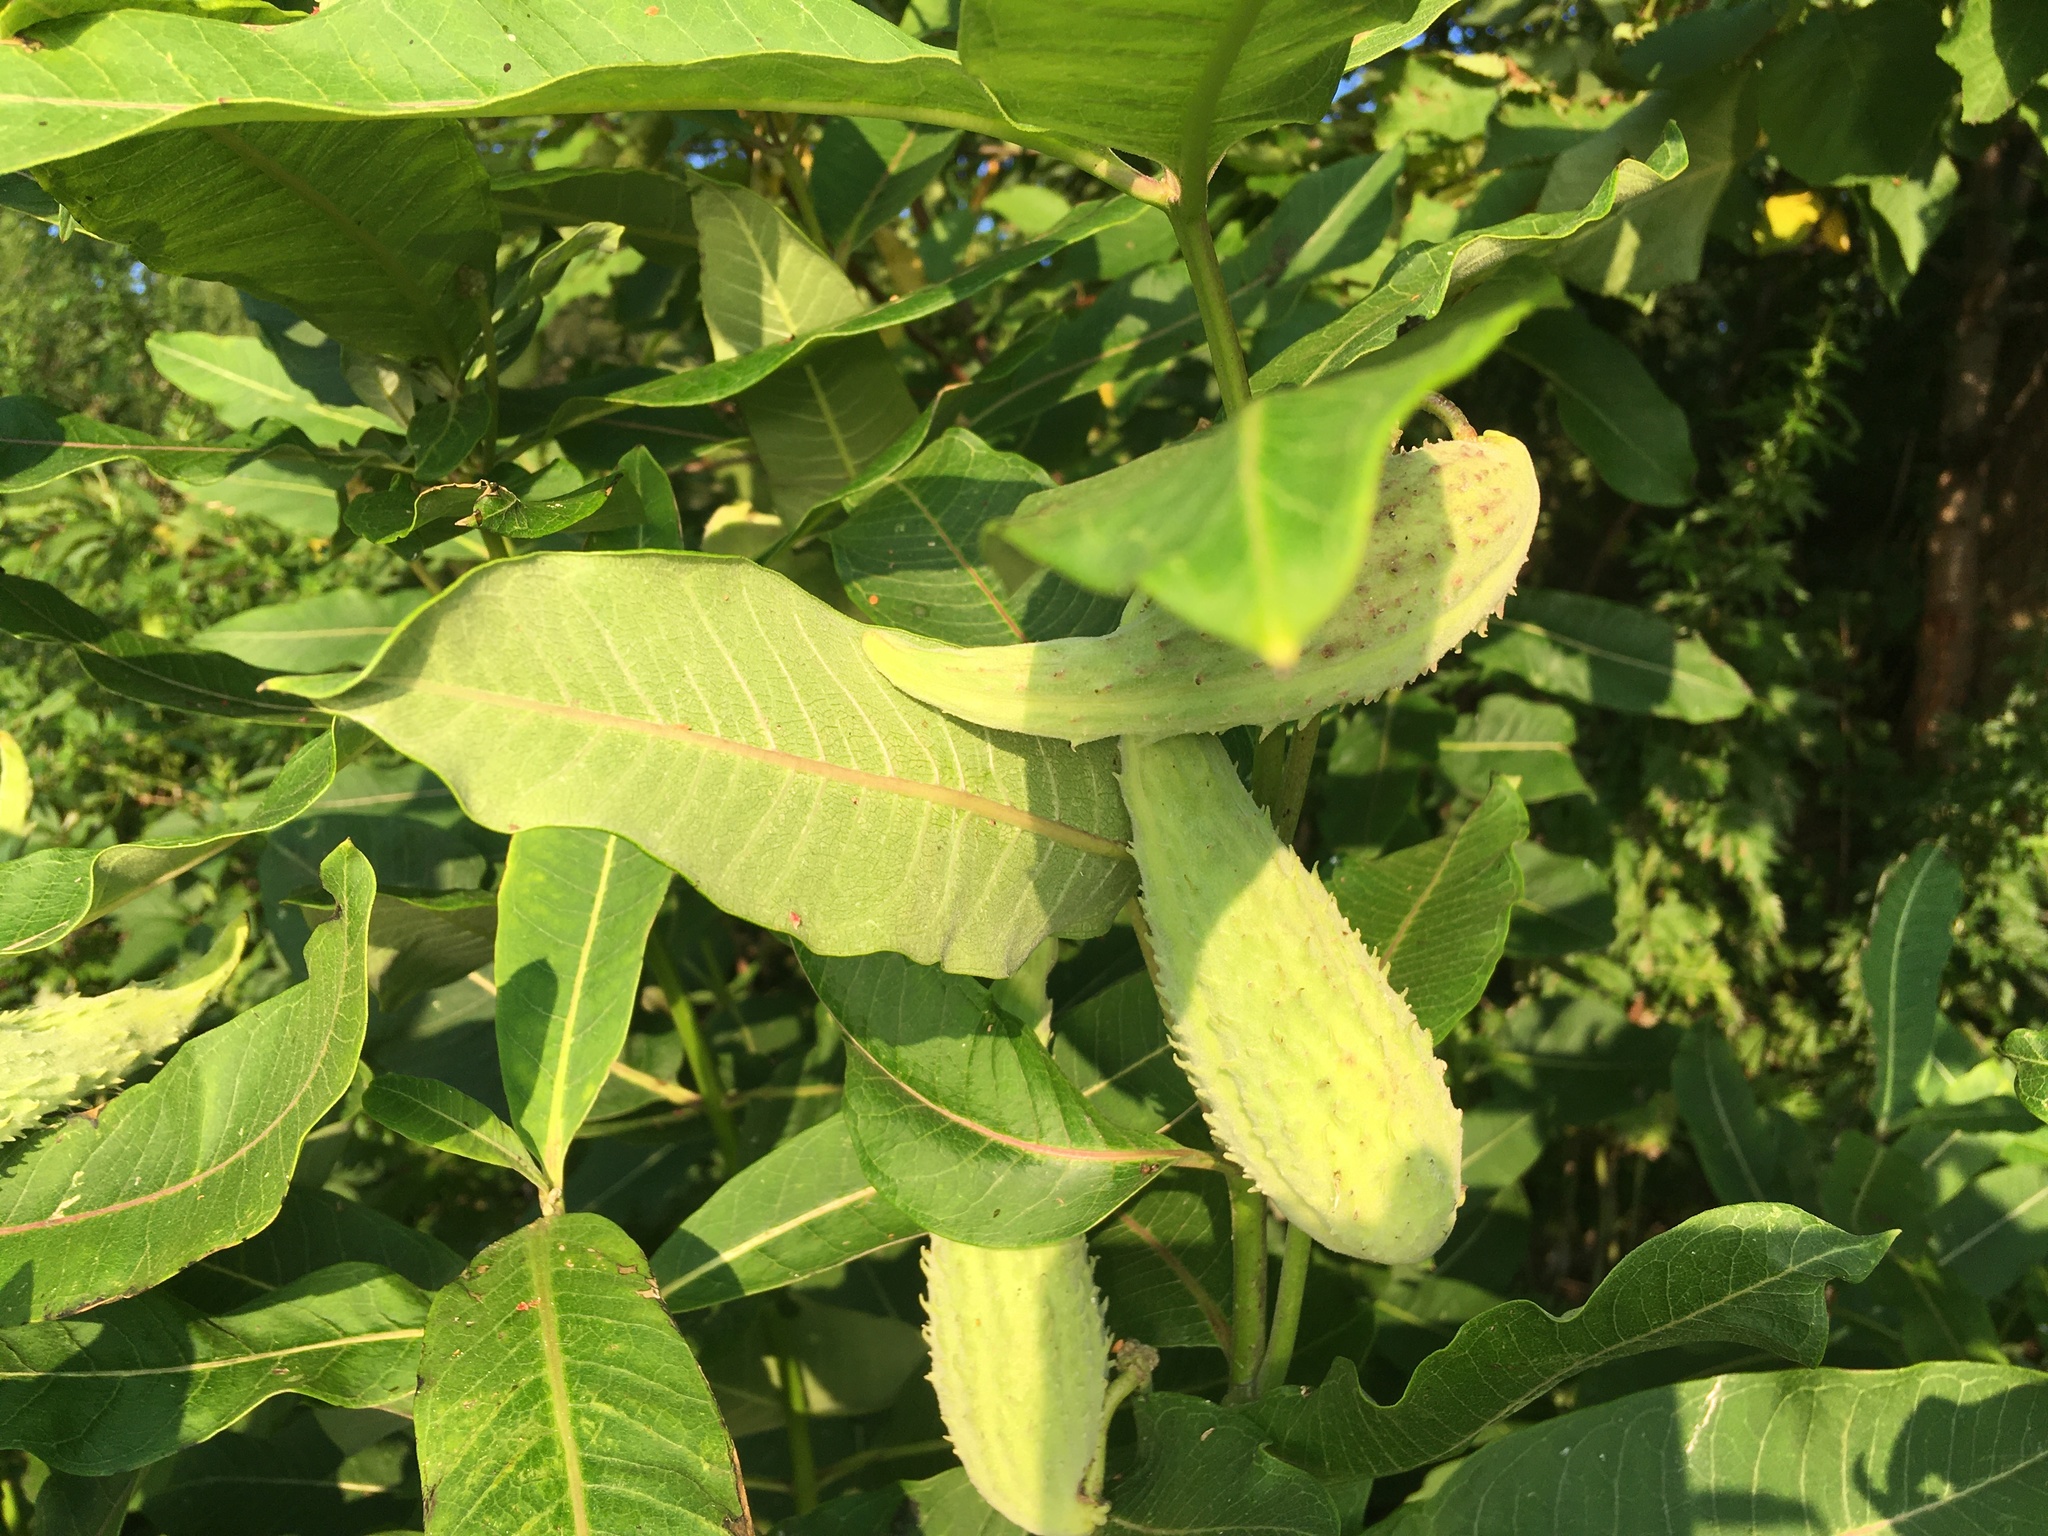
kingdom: Plantae
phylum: Tracheophyta
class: Magnoliopsida
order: Gentianales
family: Apocynaceae
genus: Asclepias
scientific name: Asclepias syriaca
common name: Common milkweed
